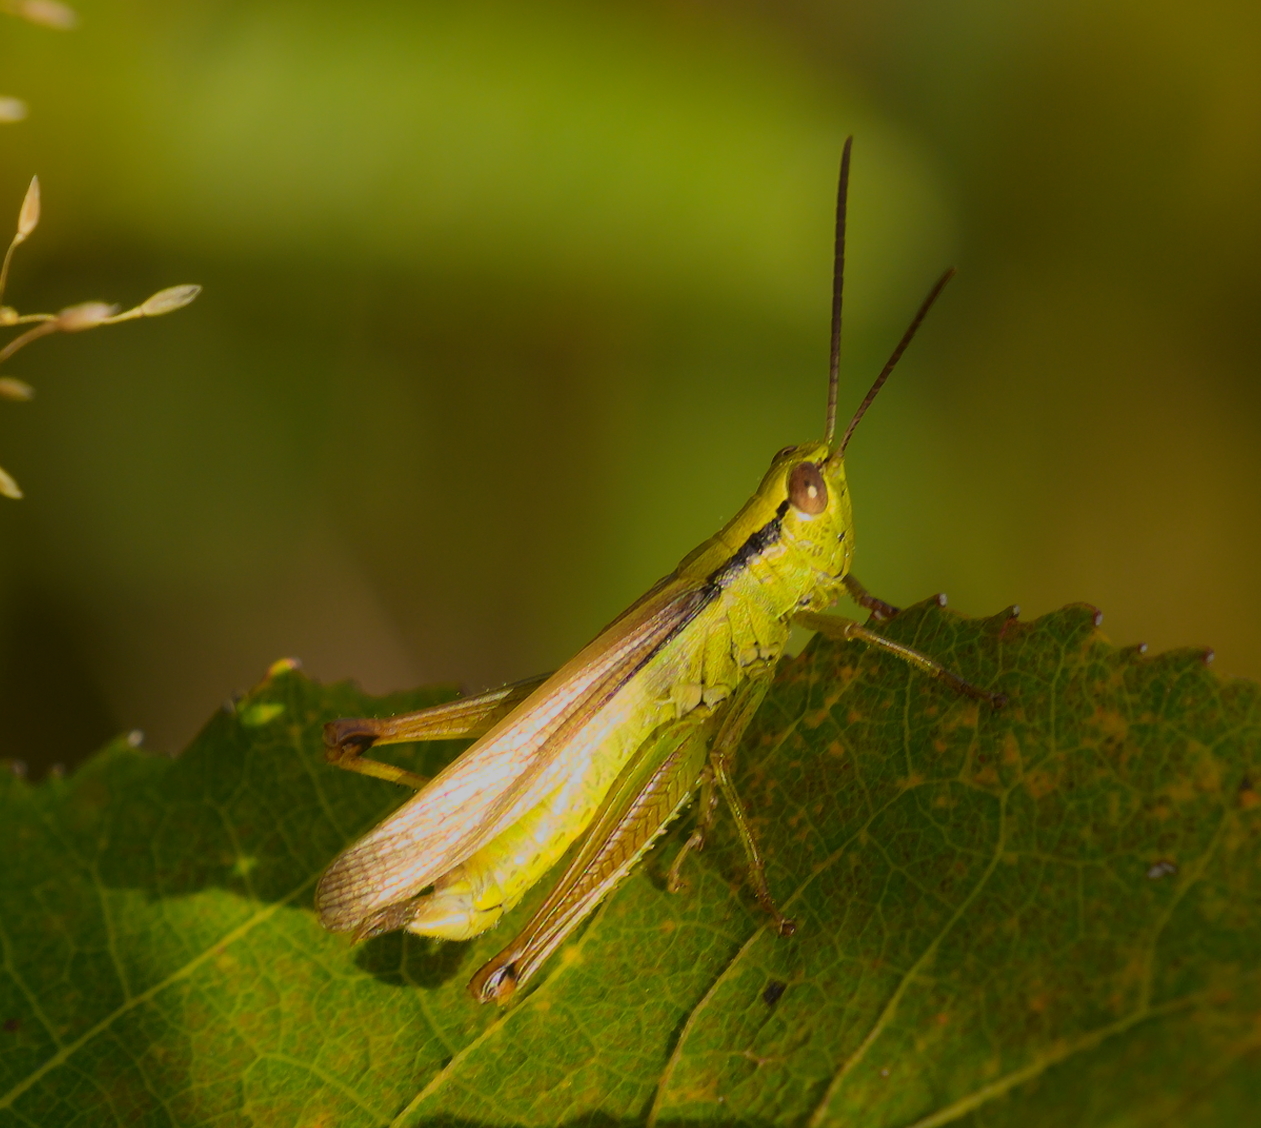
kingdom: Animalia
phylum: Arthropoda
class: Insecta
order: Orthoptera
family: Acrididae
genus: Mecostethus
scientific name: Mecostethus parapleurus
